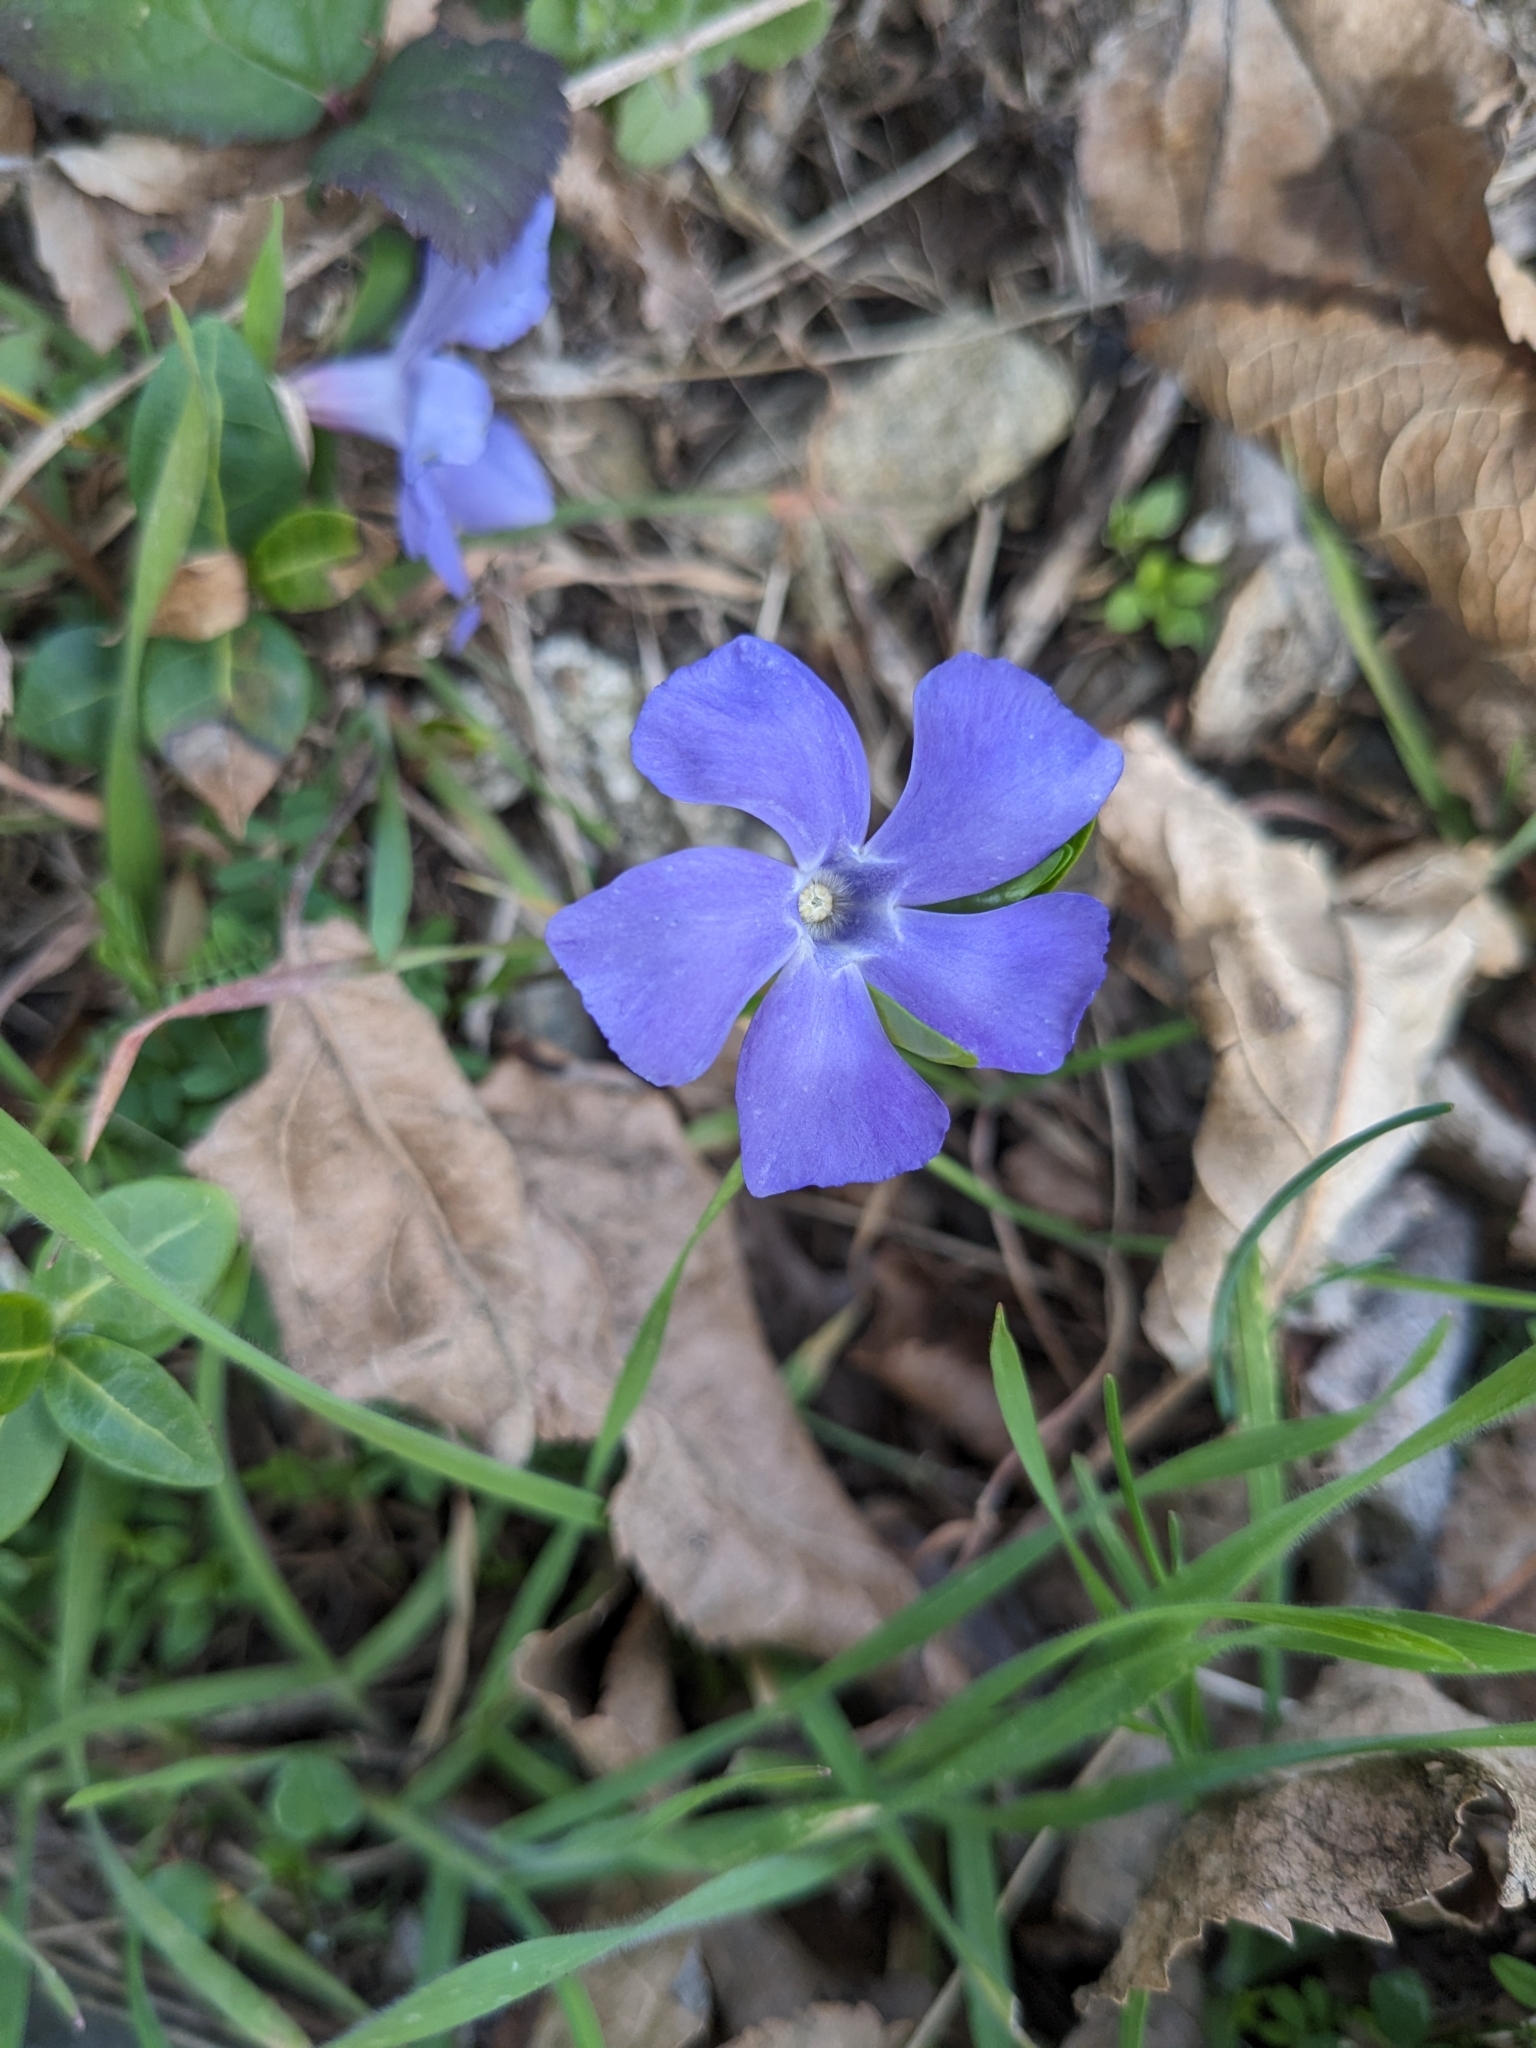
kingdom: Plantae
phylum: Tracheophyta
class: Magnoliopsida
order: Gentianales
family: Apocynaceae
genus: Vinca
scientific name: Vinca minor
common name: Lesser periwinkle
